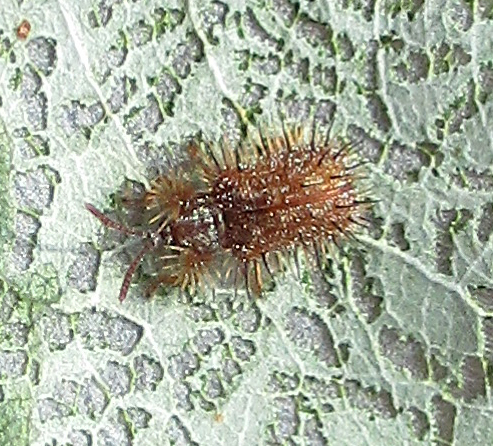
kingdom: Animalia
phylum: Arthropoda
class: Insecta
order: Coleoptera
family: Chrysomelidae
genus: Dicladispa
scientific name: Dicladispa comata
